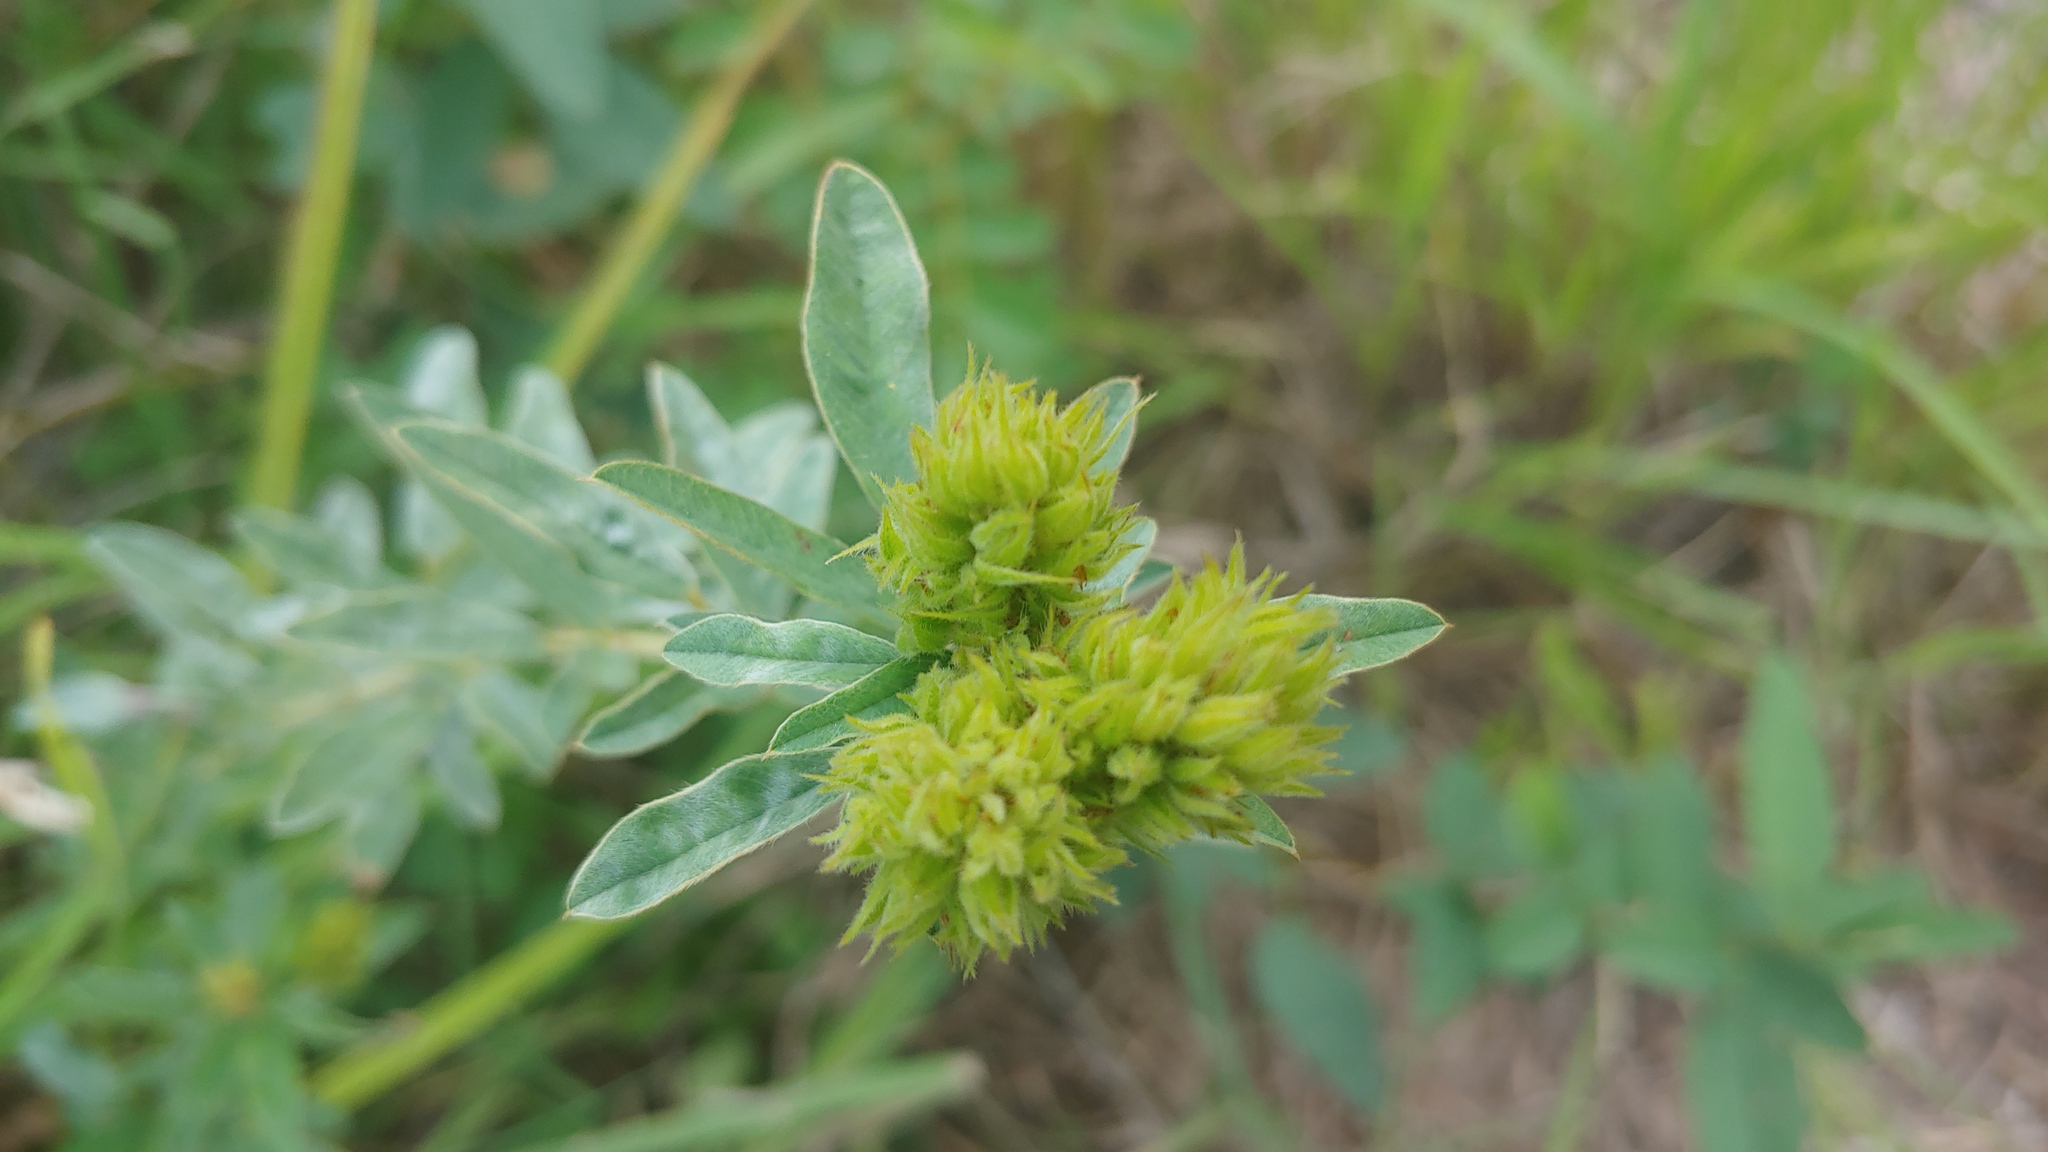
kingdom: Plantae
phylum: Tracheophyta
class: Magnoliopsida
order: Fabales
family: Fabaceae
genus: Lespedeza
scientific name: Lespedeza capitata
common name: Dusty clover
